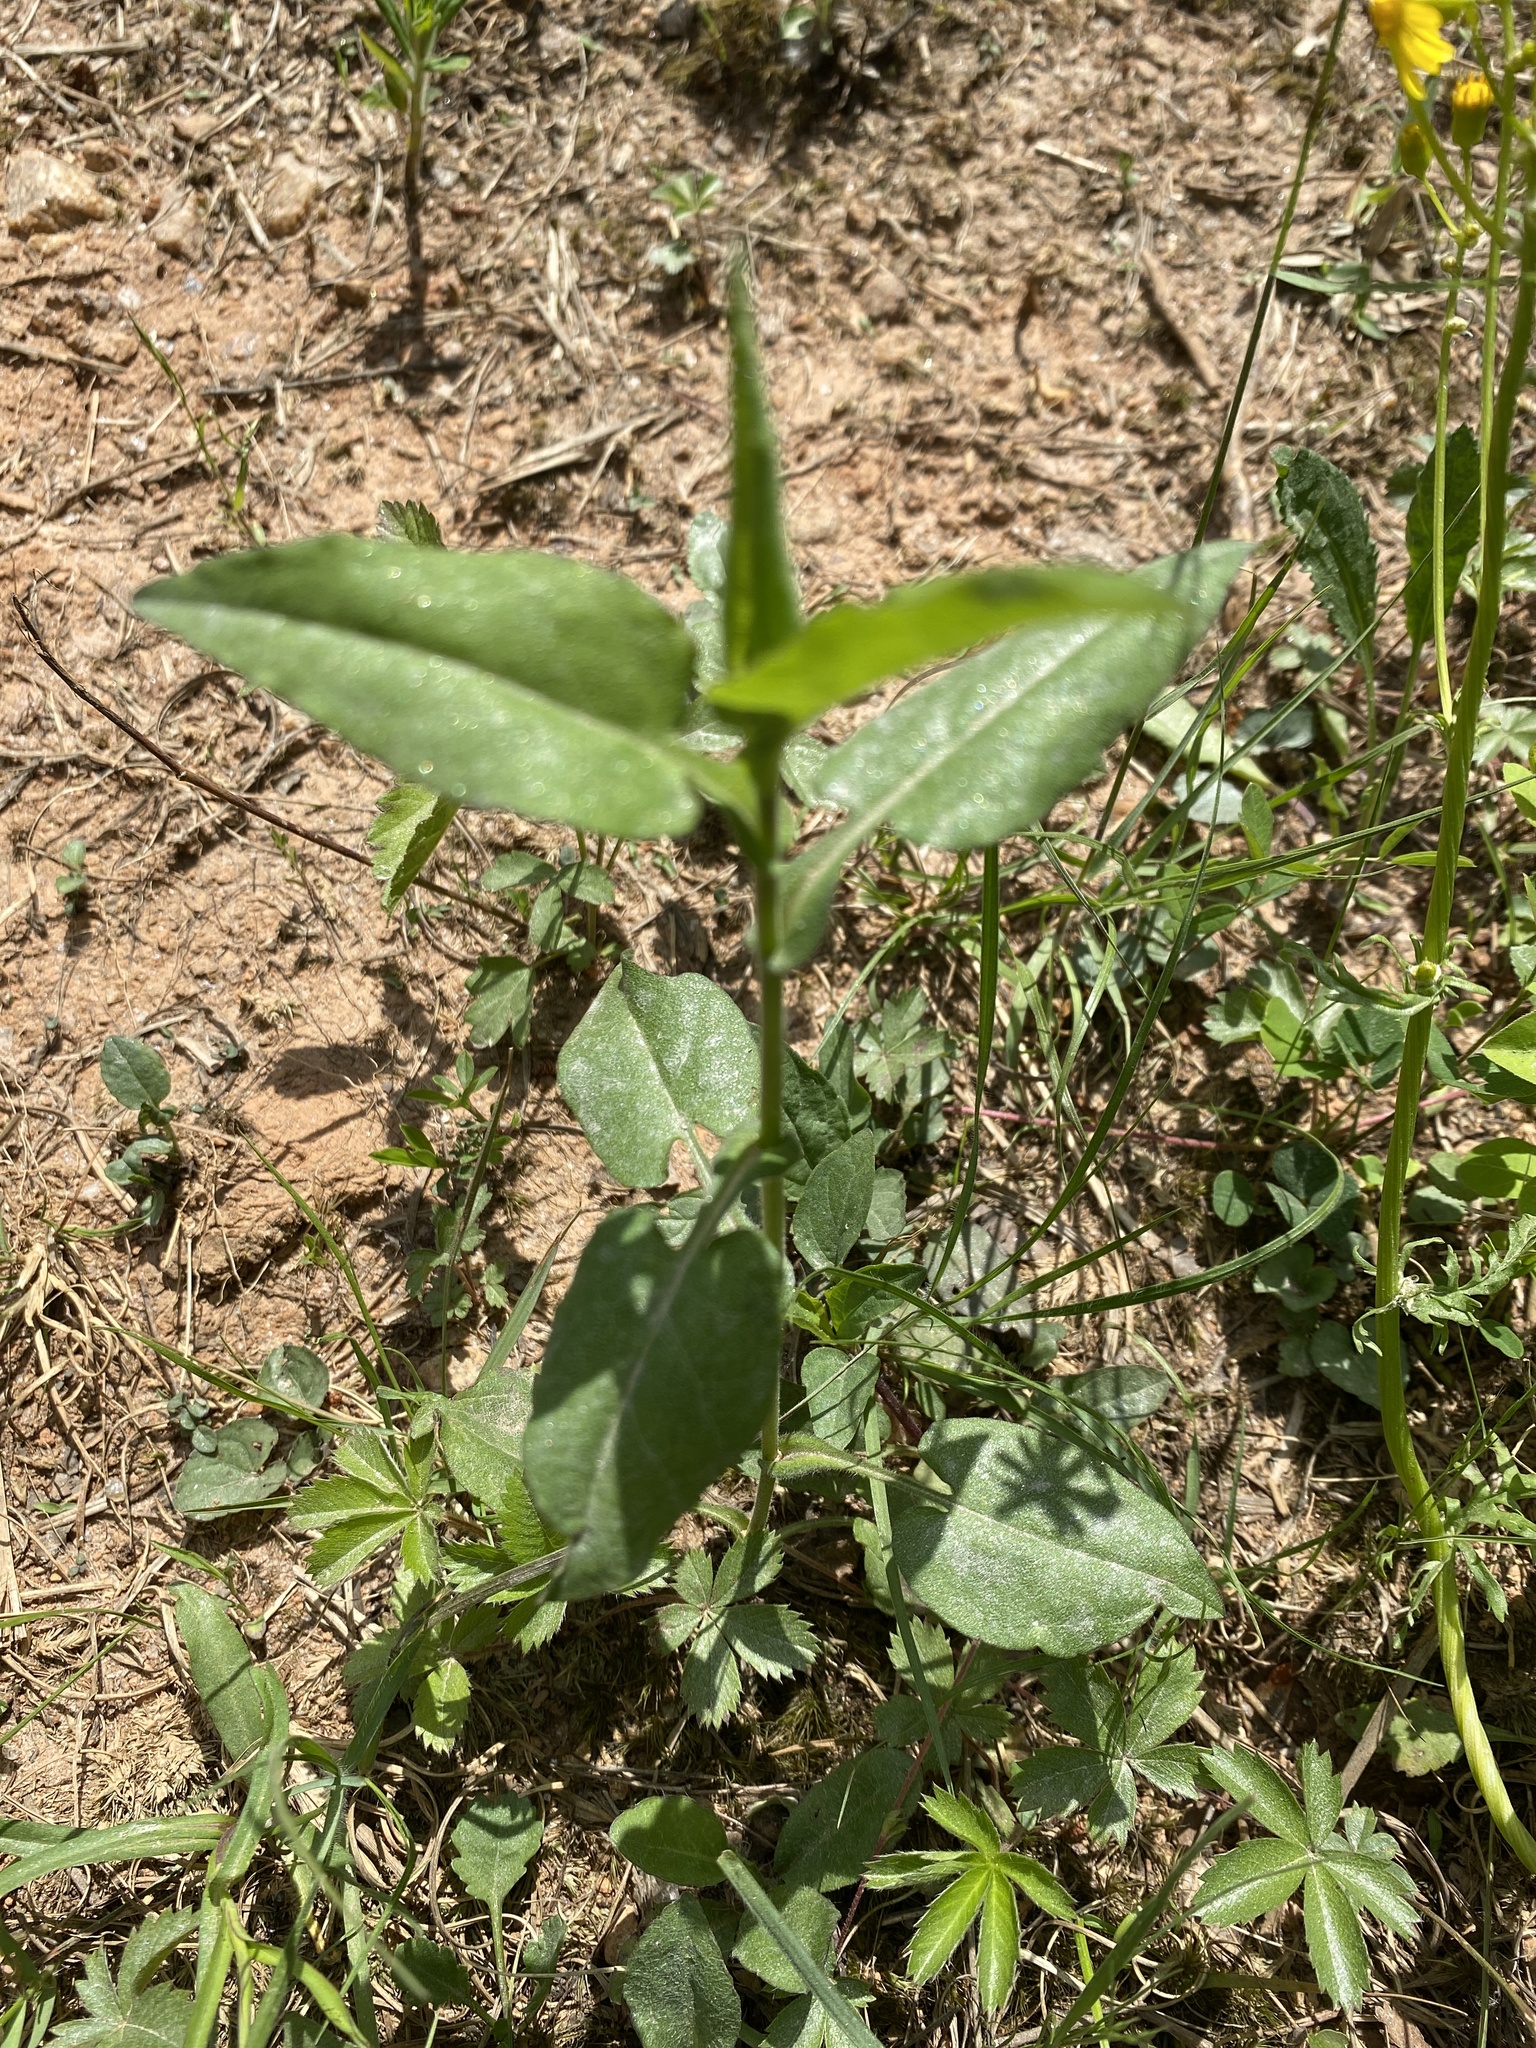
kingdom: Plantae
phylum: Tracheophyta
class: Magnoliopsida
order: Asterales
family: Asteraceae
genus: Symphyotrichum
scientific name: Symphyotrichum undulatum
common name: Clasping heart-leaf aster
